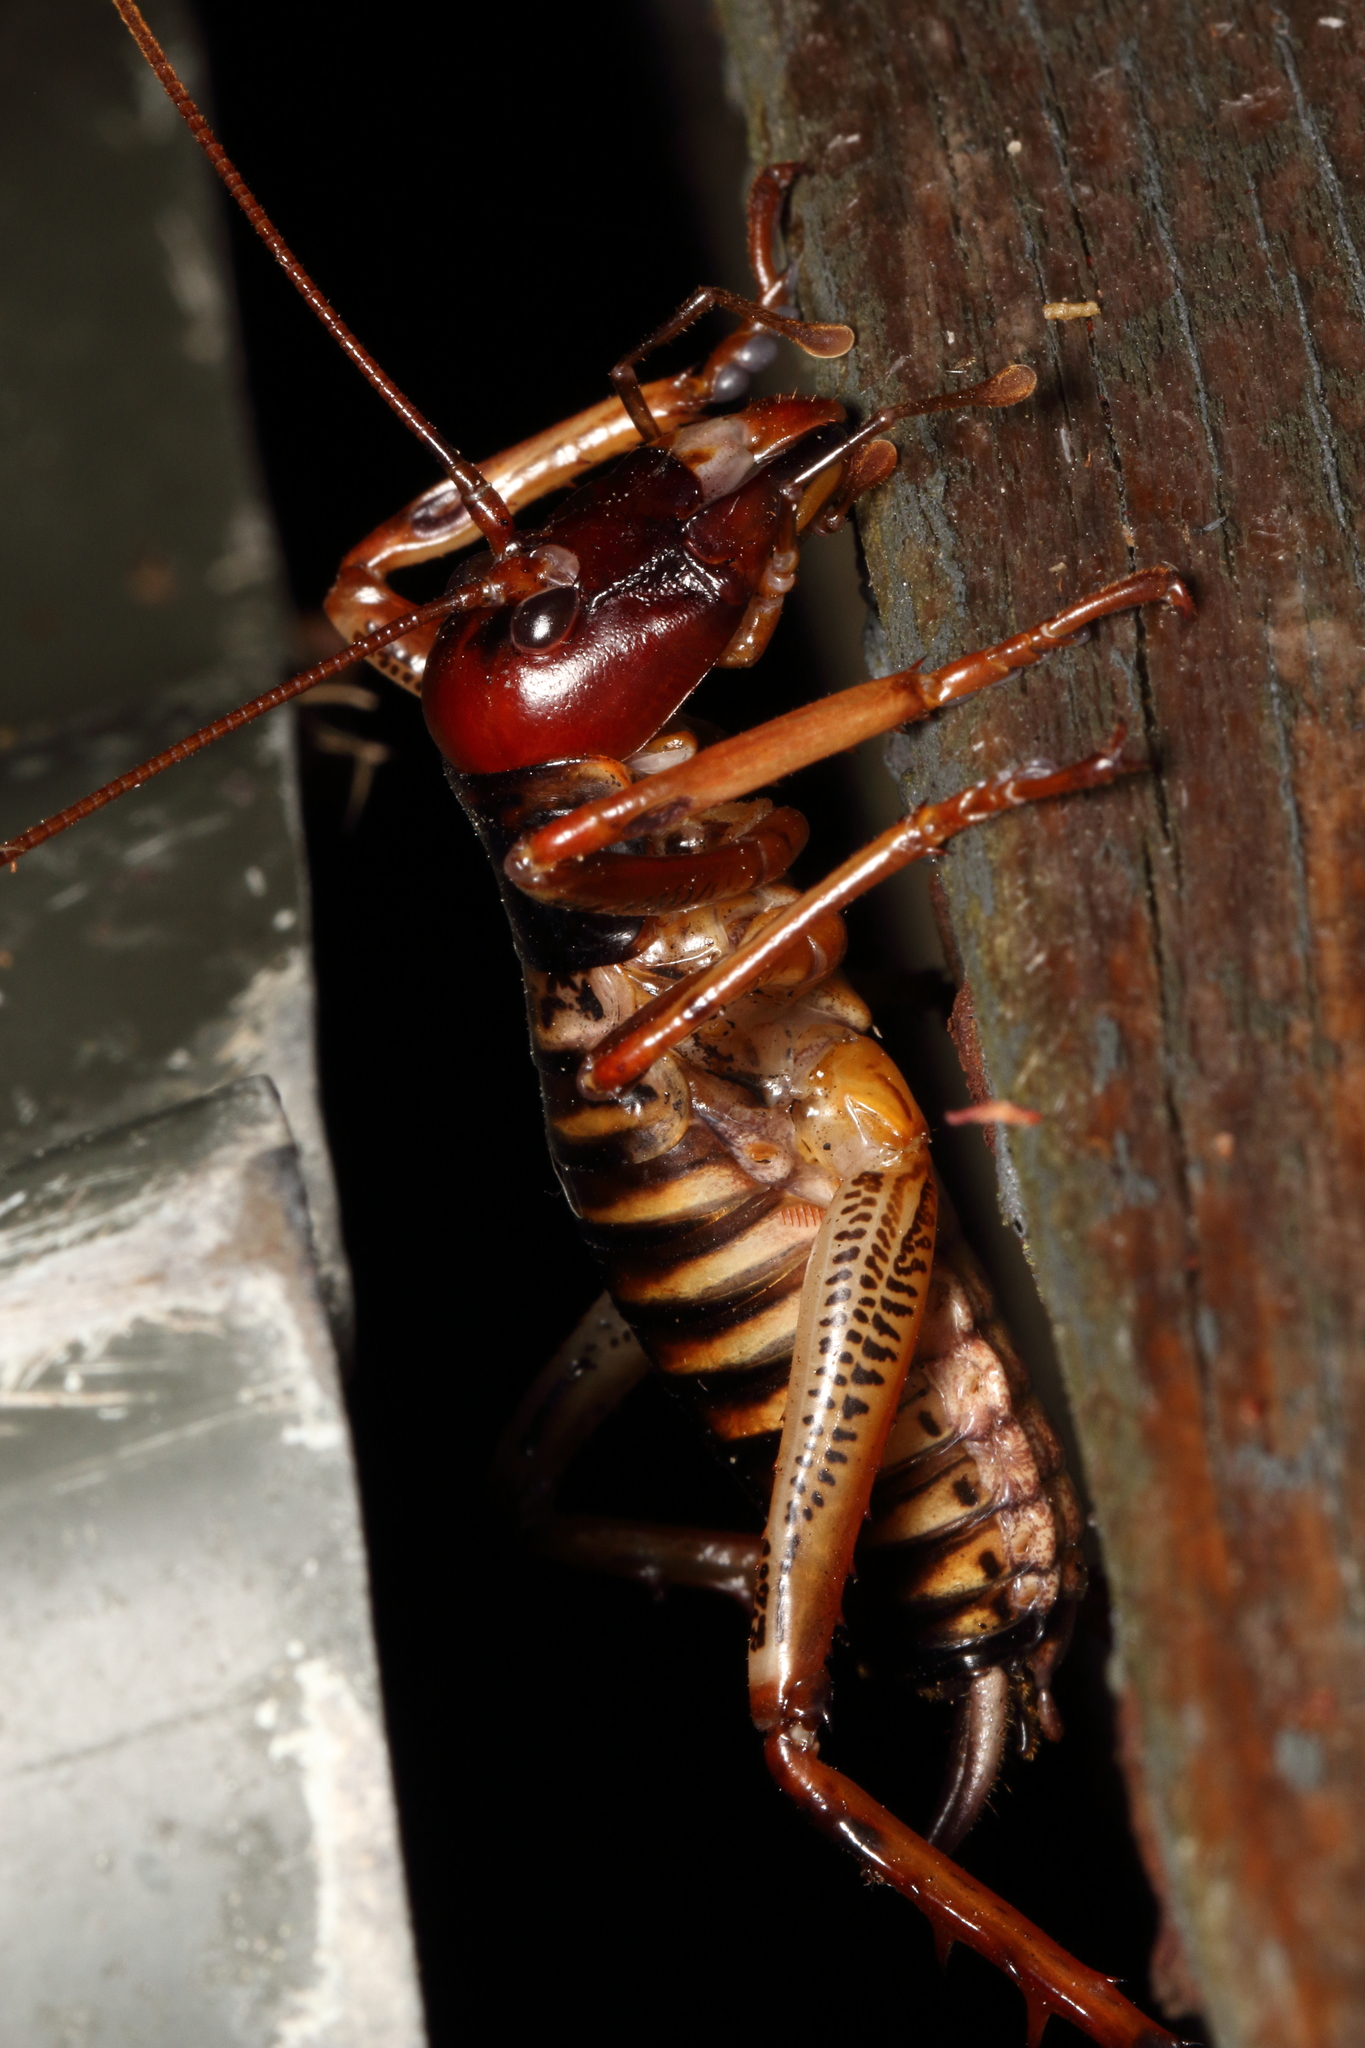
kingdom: Animalia
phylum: Arthropoda
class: Insecta
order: Orthoptera
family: Anostostomatidae
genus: Hemideina
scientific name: Hemideina crassidens
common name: Wellington tree weta
